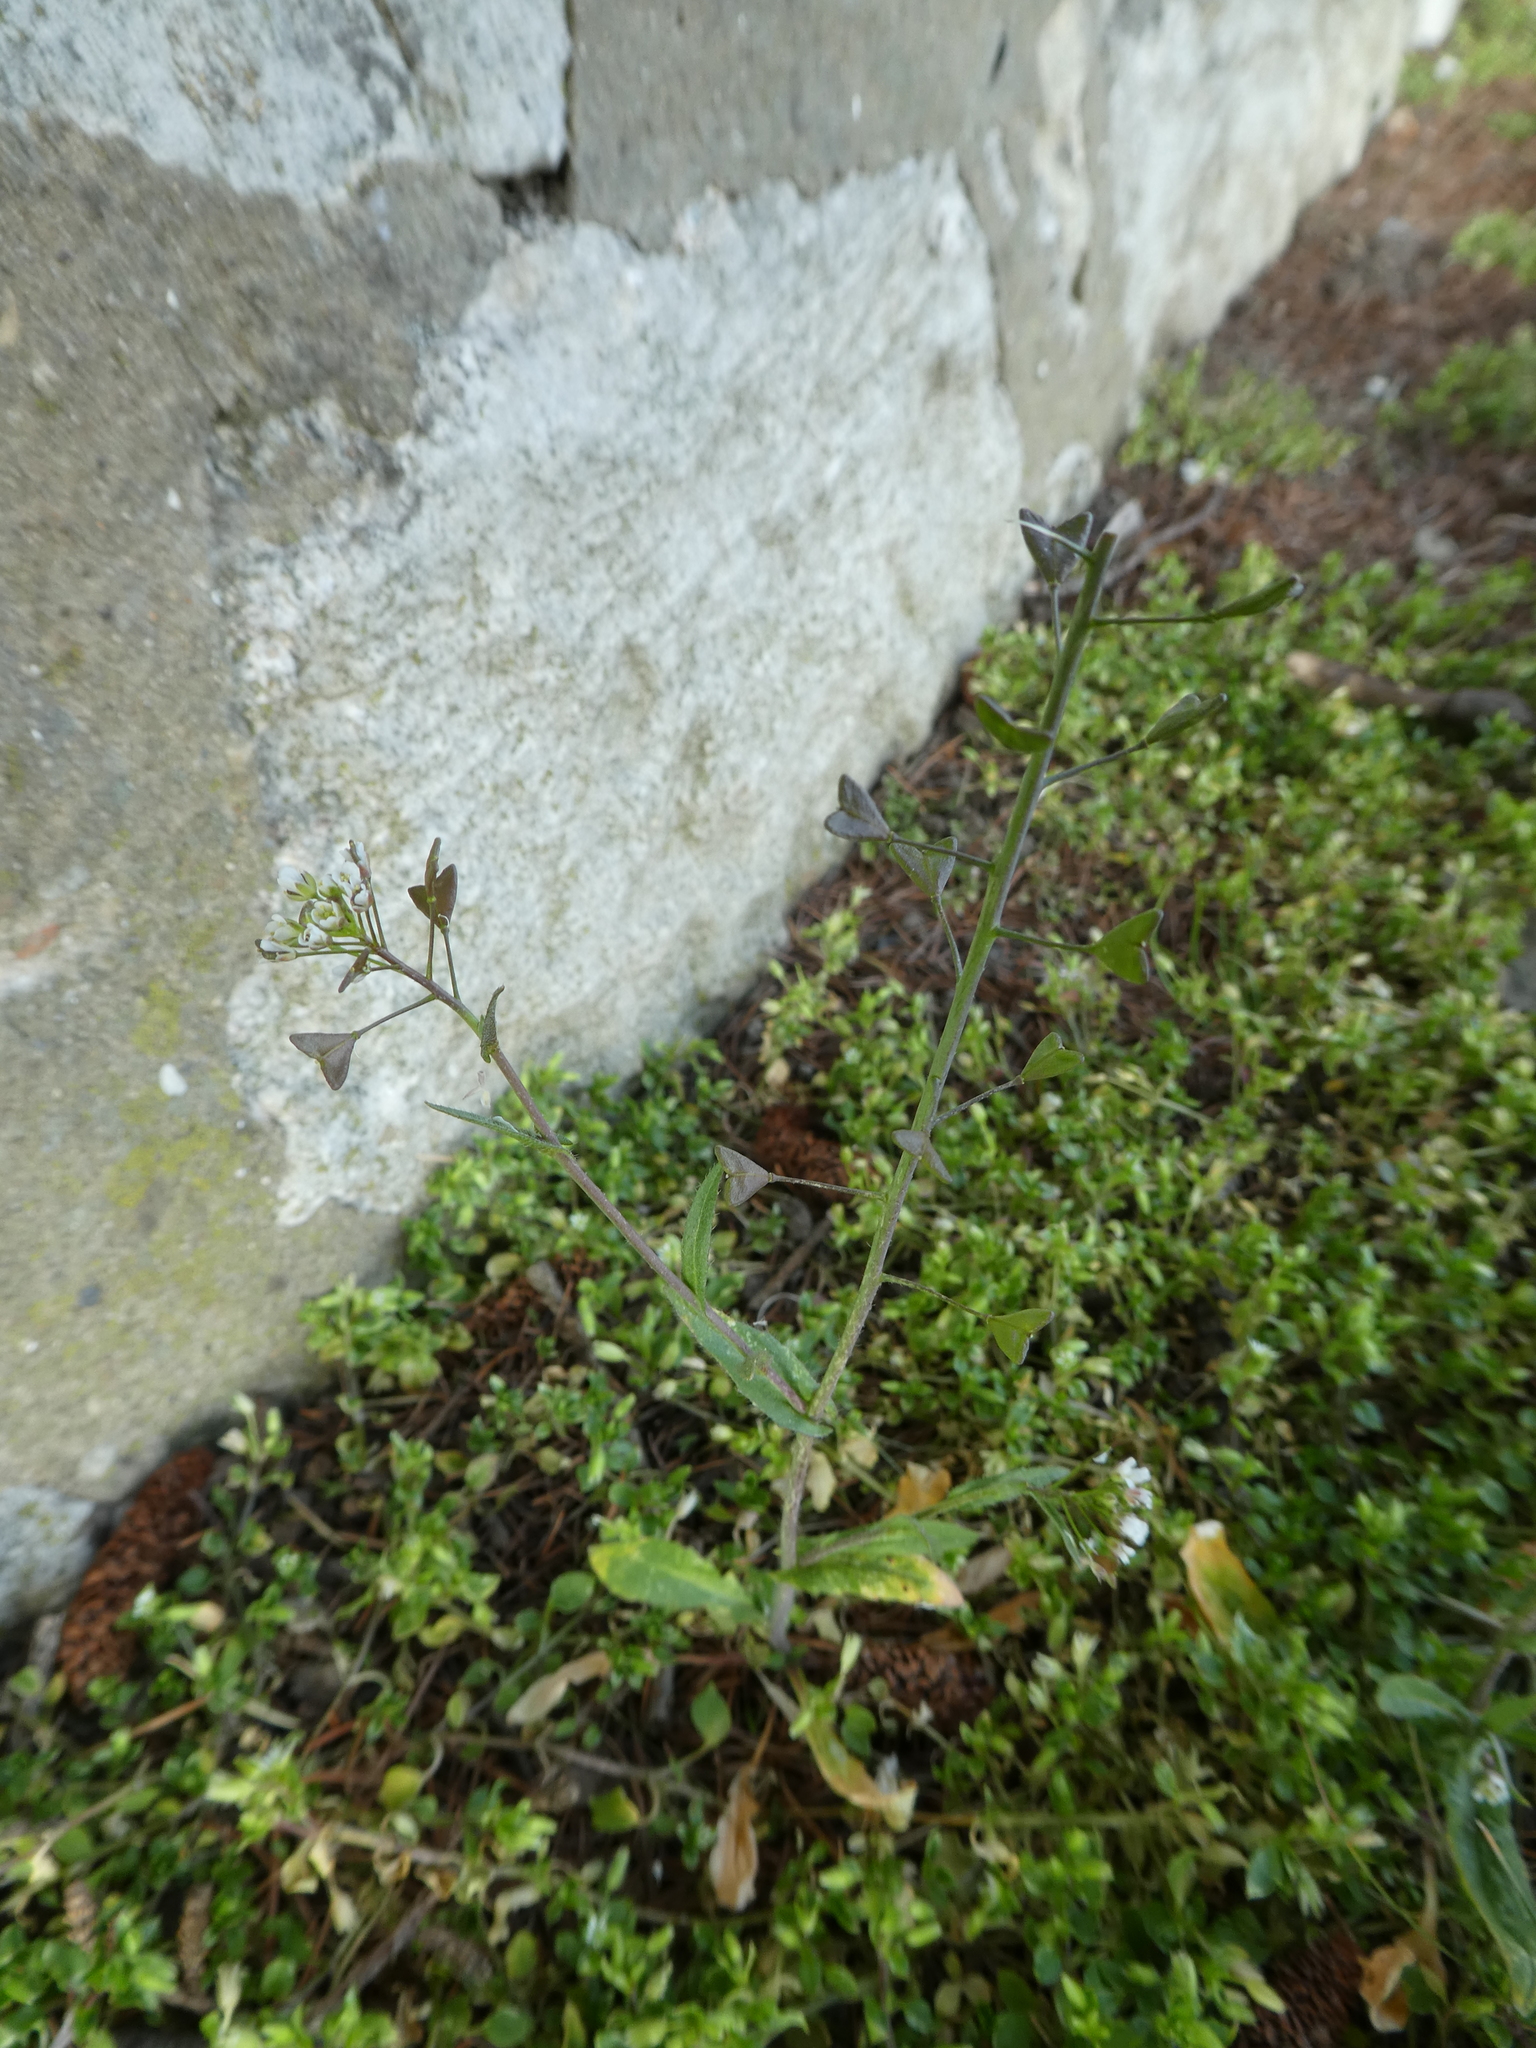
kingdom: Plantae
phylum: Tracheophyta
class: Magnoliopsida
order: Brassicales
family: Brassicaceae
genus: Capsella
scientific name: Capsella bursa-pastoris
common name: Shepherd's purse
